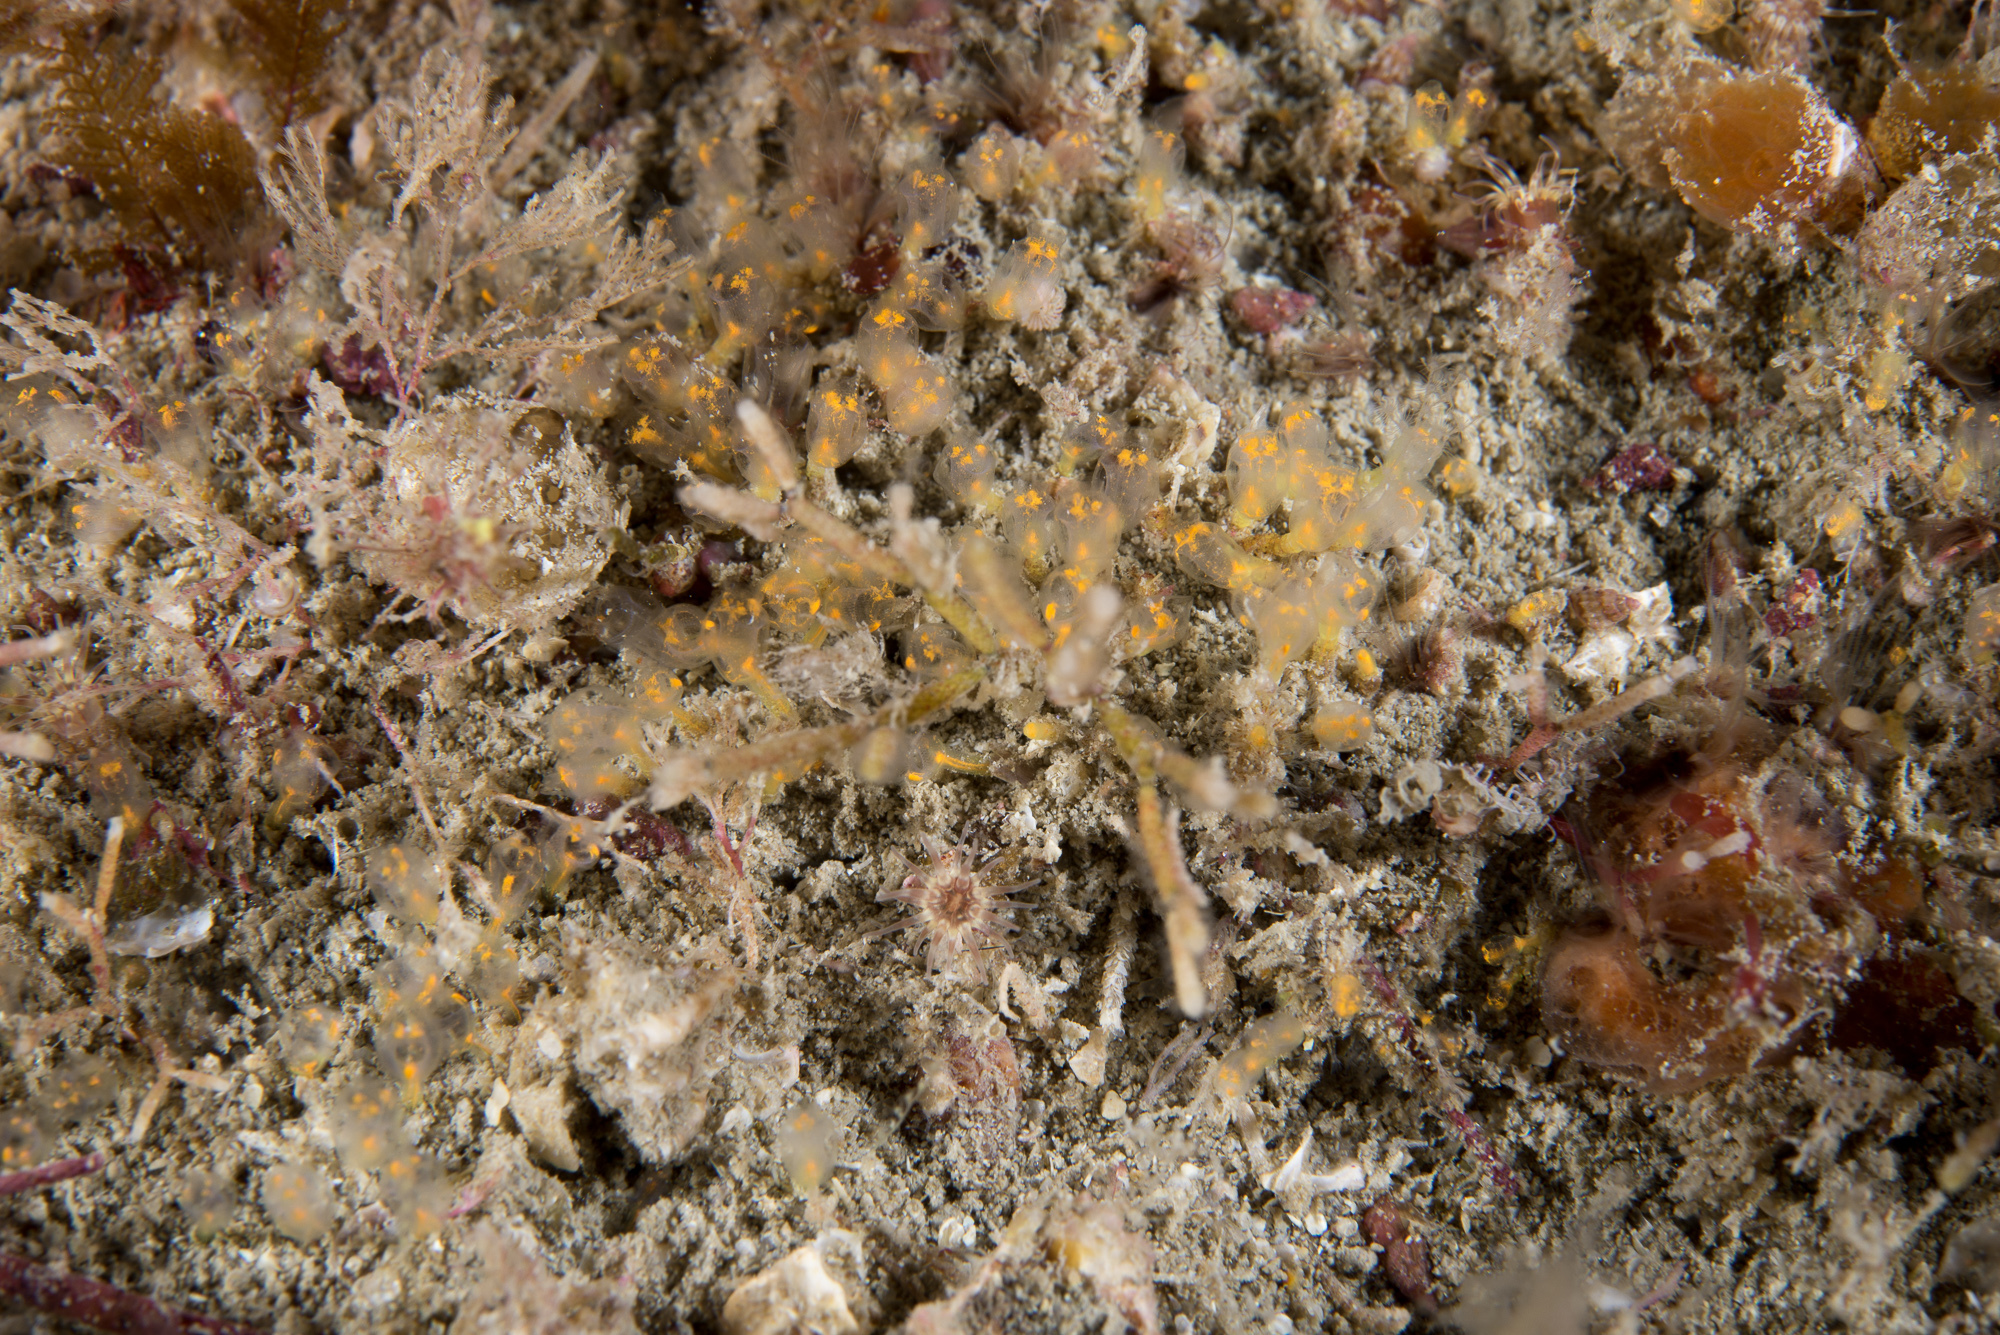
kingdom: Animalia
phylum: Chordata
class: Ascidiacea
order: Aplousobranchia
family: Clavelinidae
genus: Pycnoclavella
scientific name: Pycnoclavella aurilucens
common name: Orange lights seasquirt
